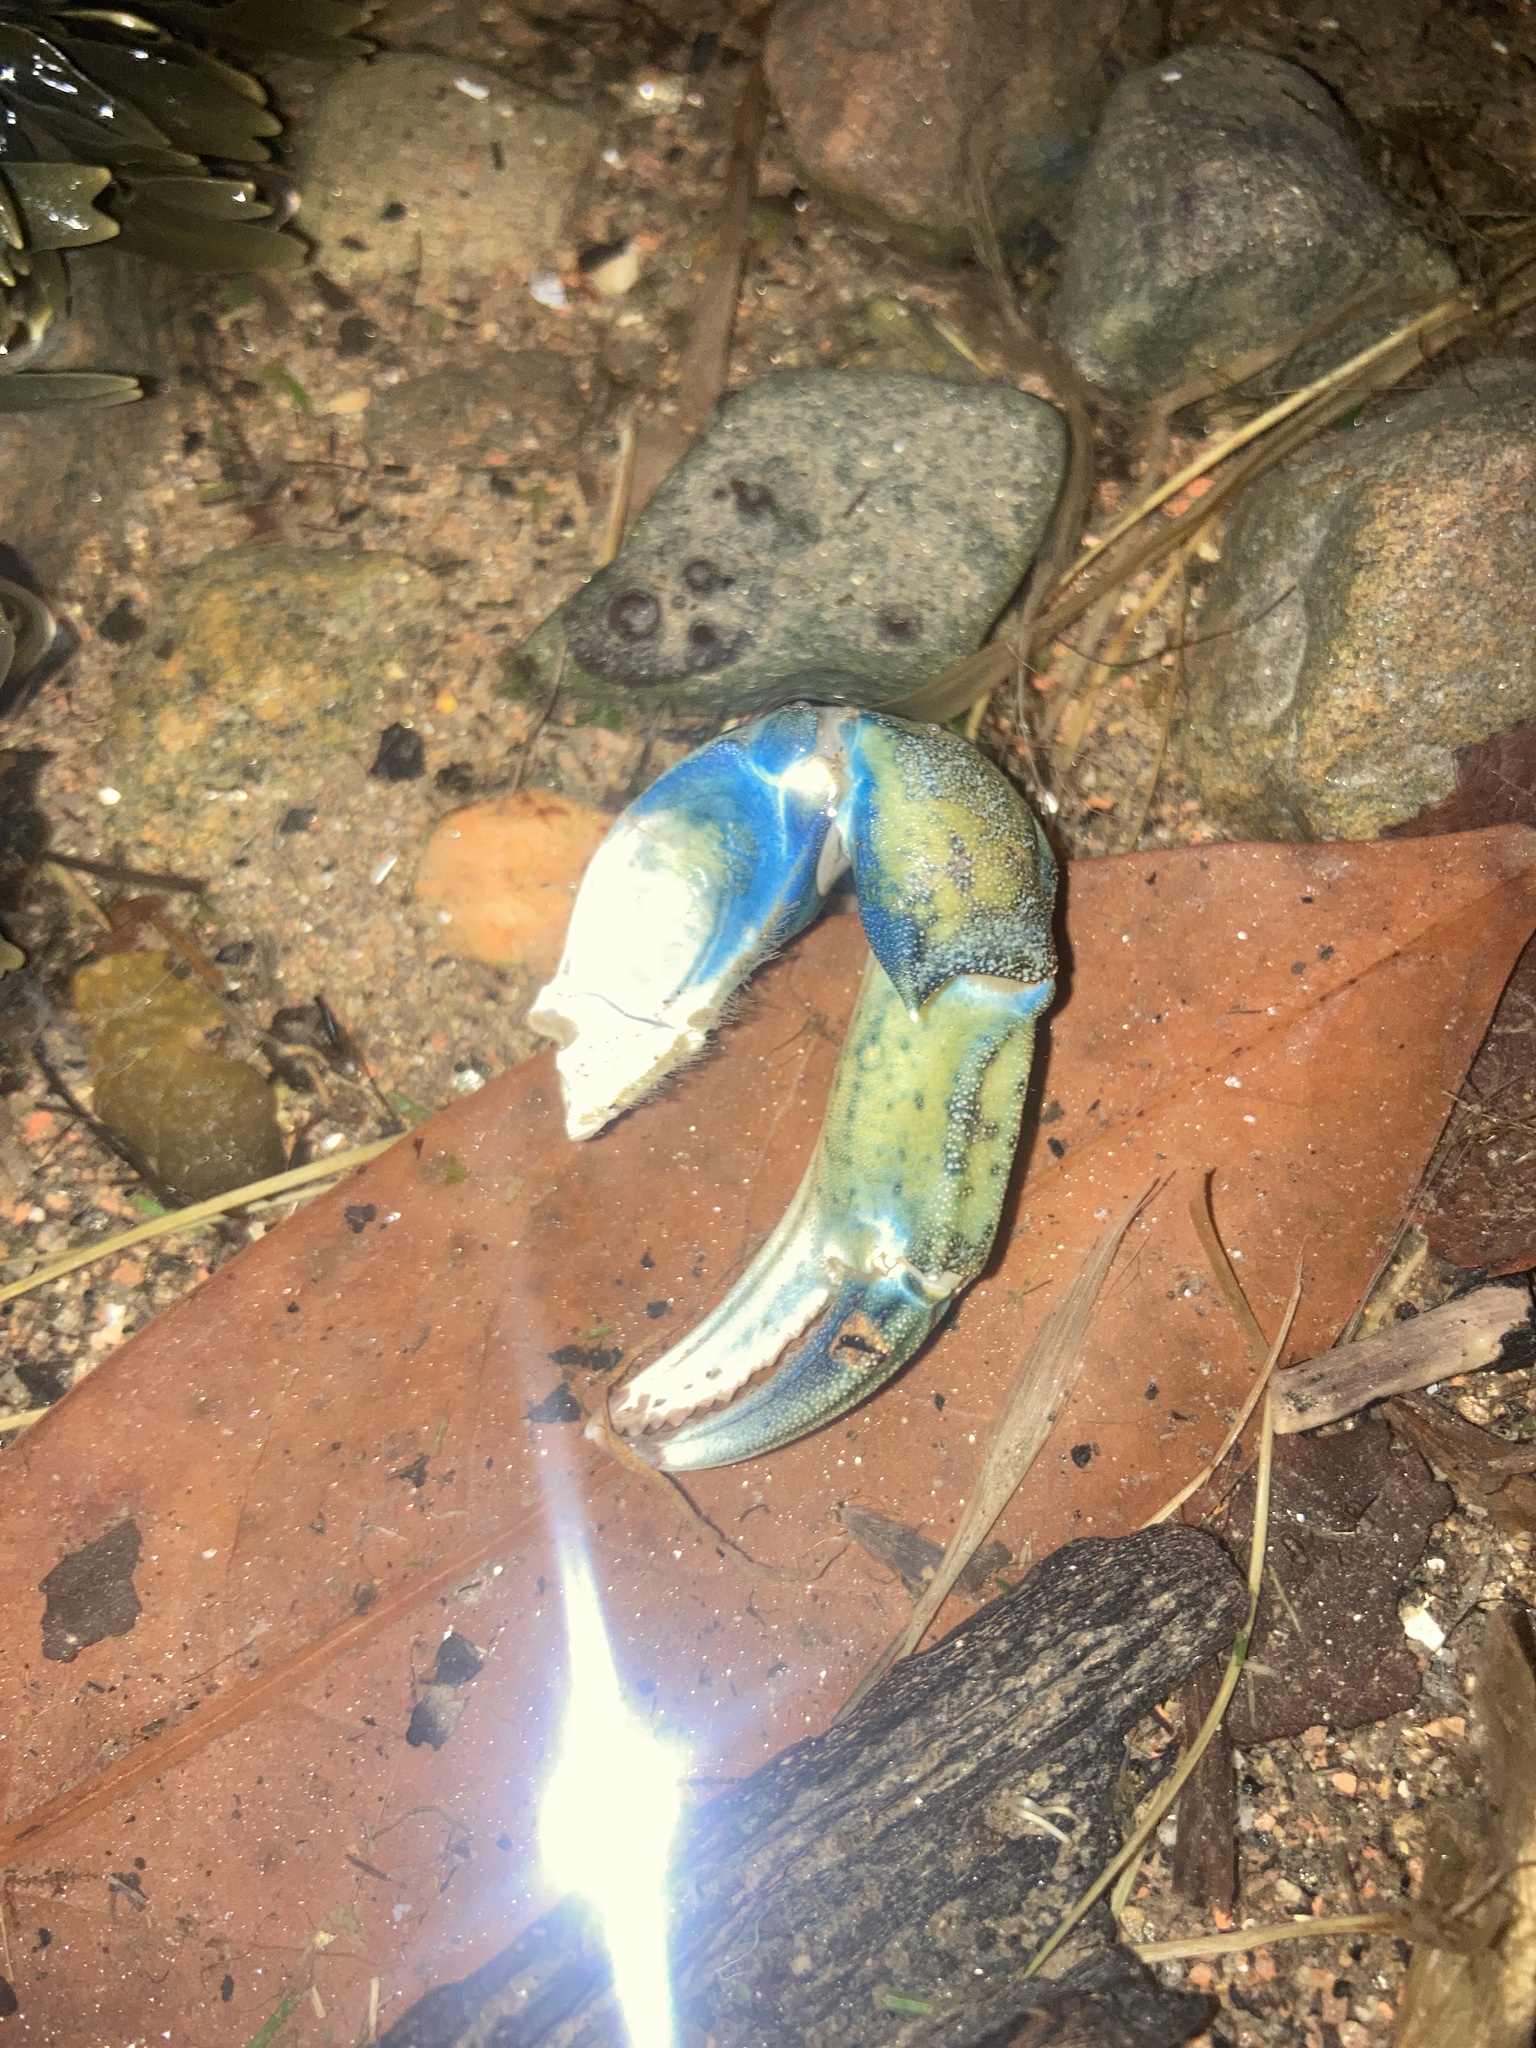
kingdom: Animalia
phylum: Arthropoda
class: Malacostraca
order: Decapoda
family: Carcinidae
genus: Carcinus
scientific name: Carcinus maenas
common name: European green crab
